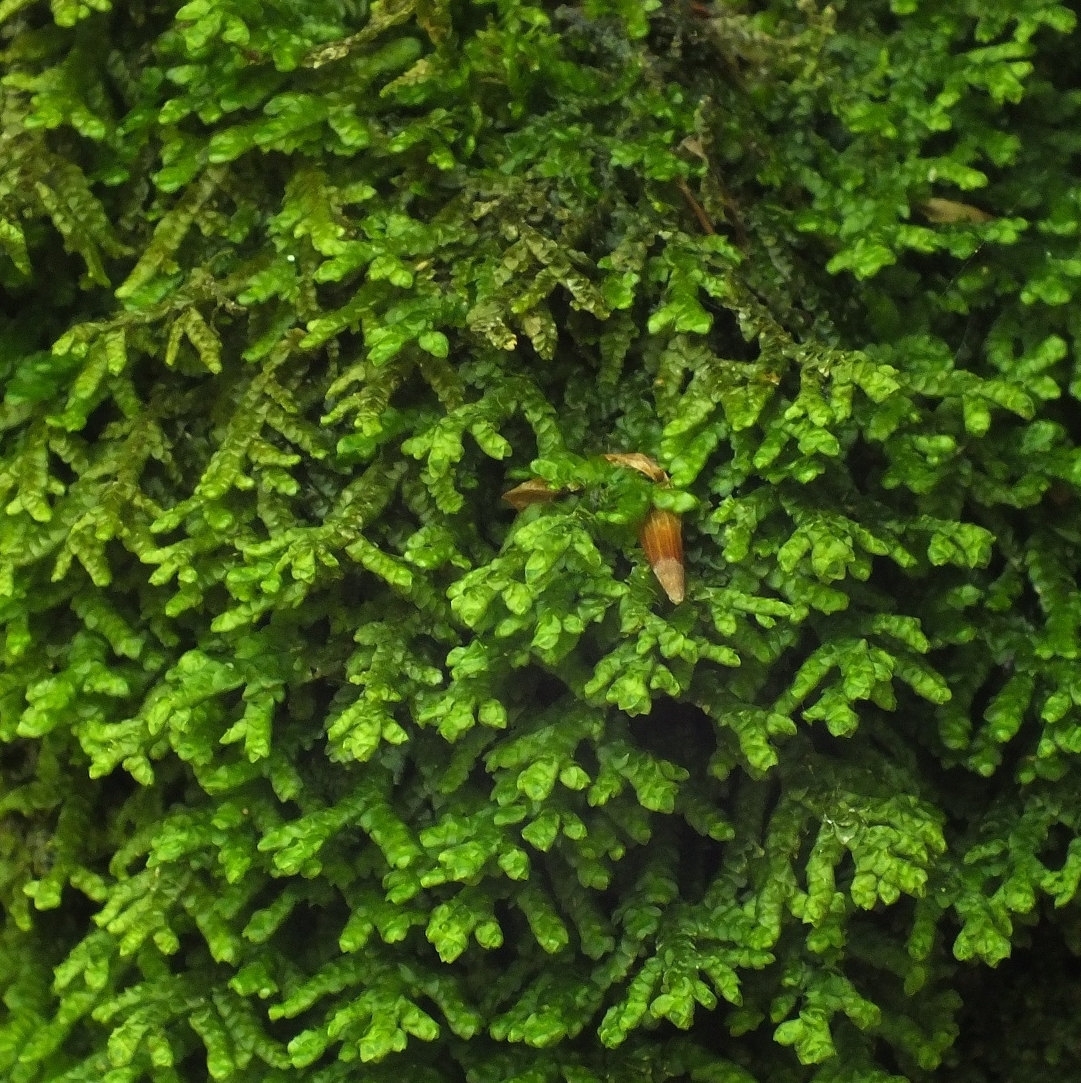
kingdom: Plantae
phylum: Marchantiophyta
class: Jungermanniopsida
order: Porellales
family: Porellaceae
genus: Porella
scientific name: Porella platyphylla
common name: Wall scalewort
